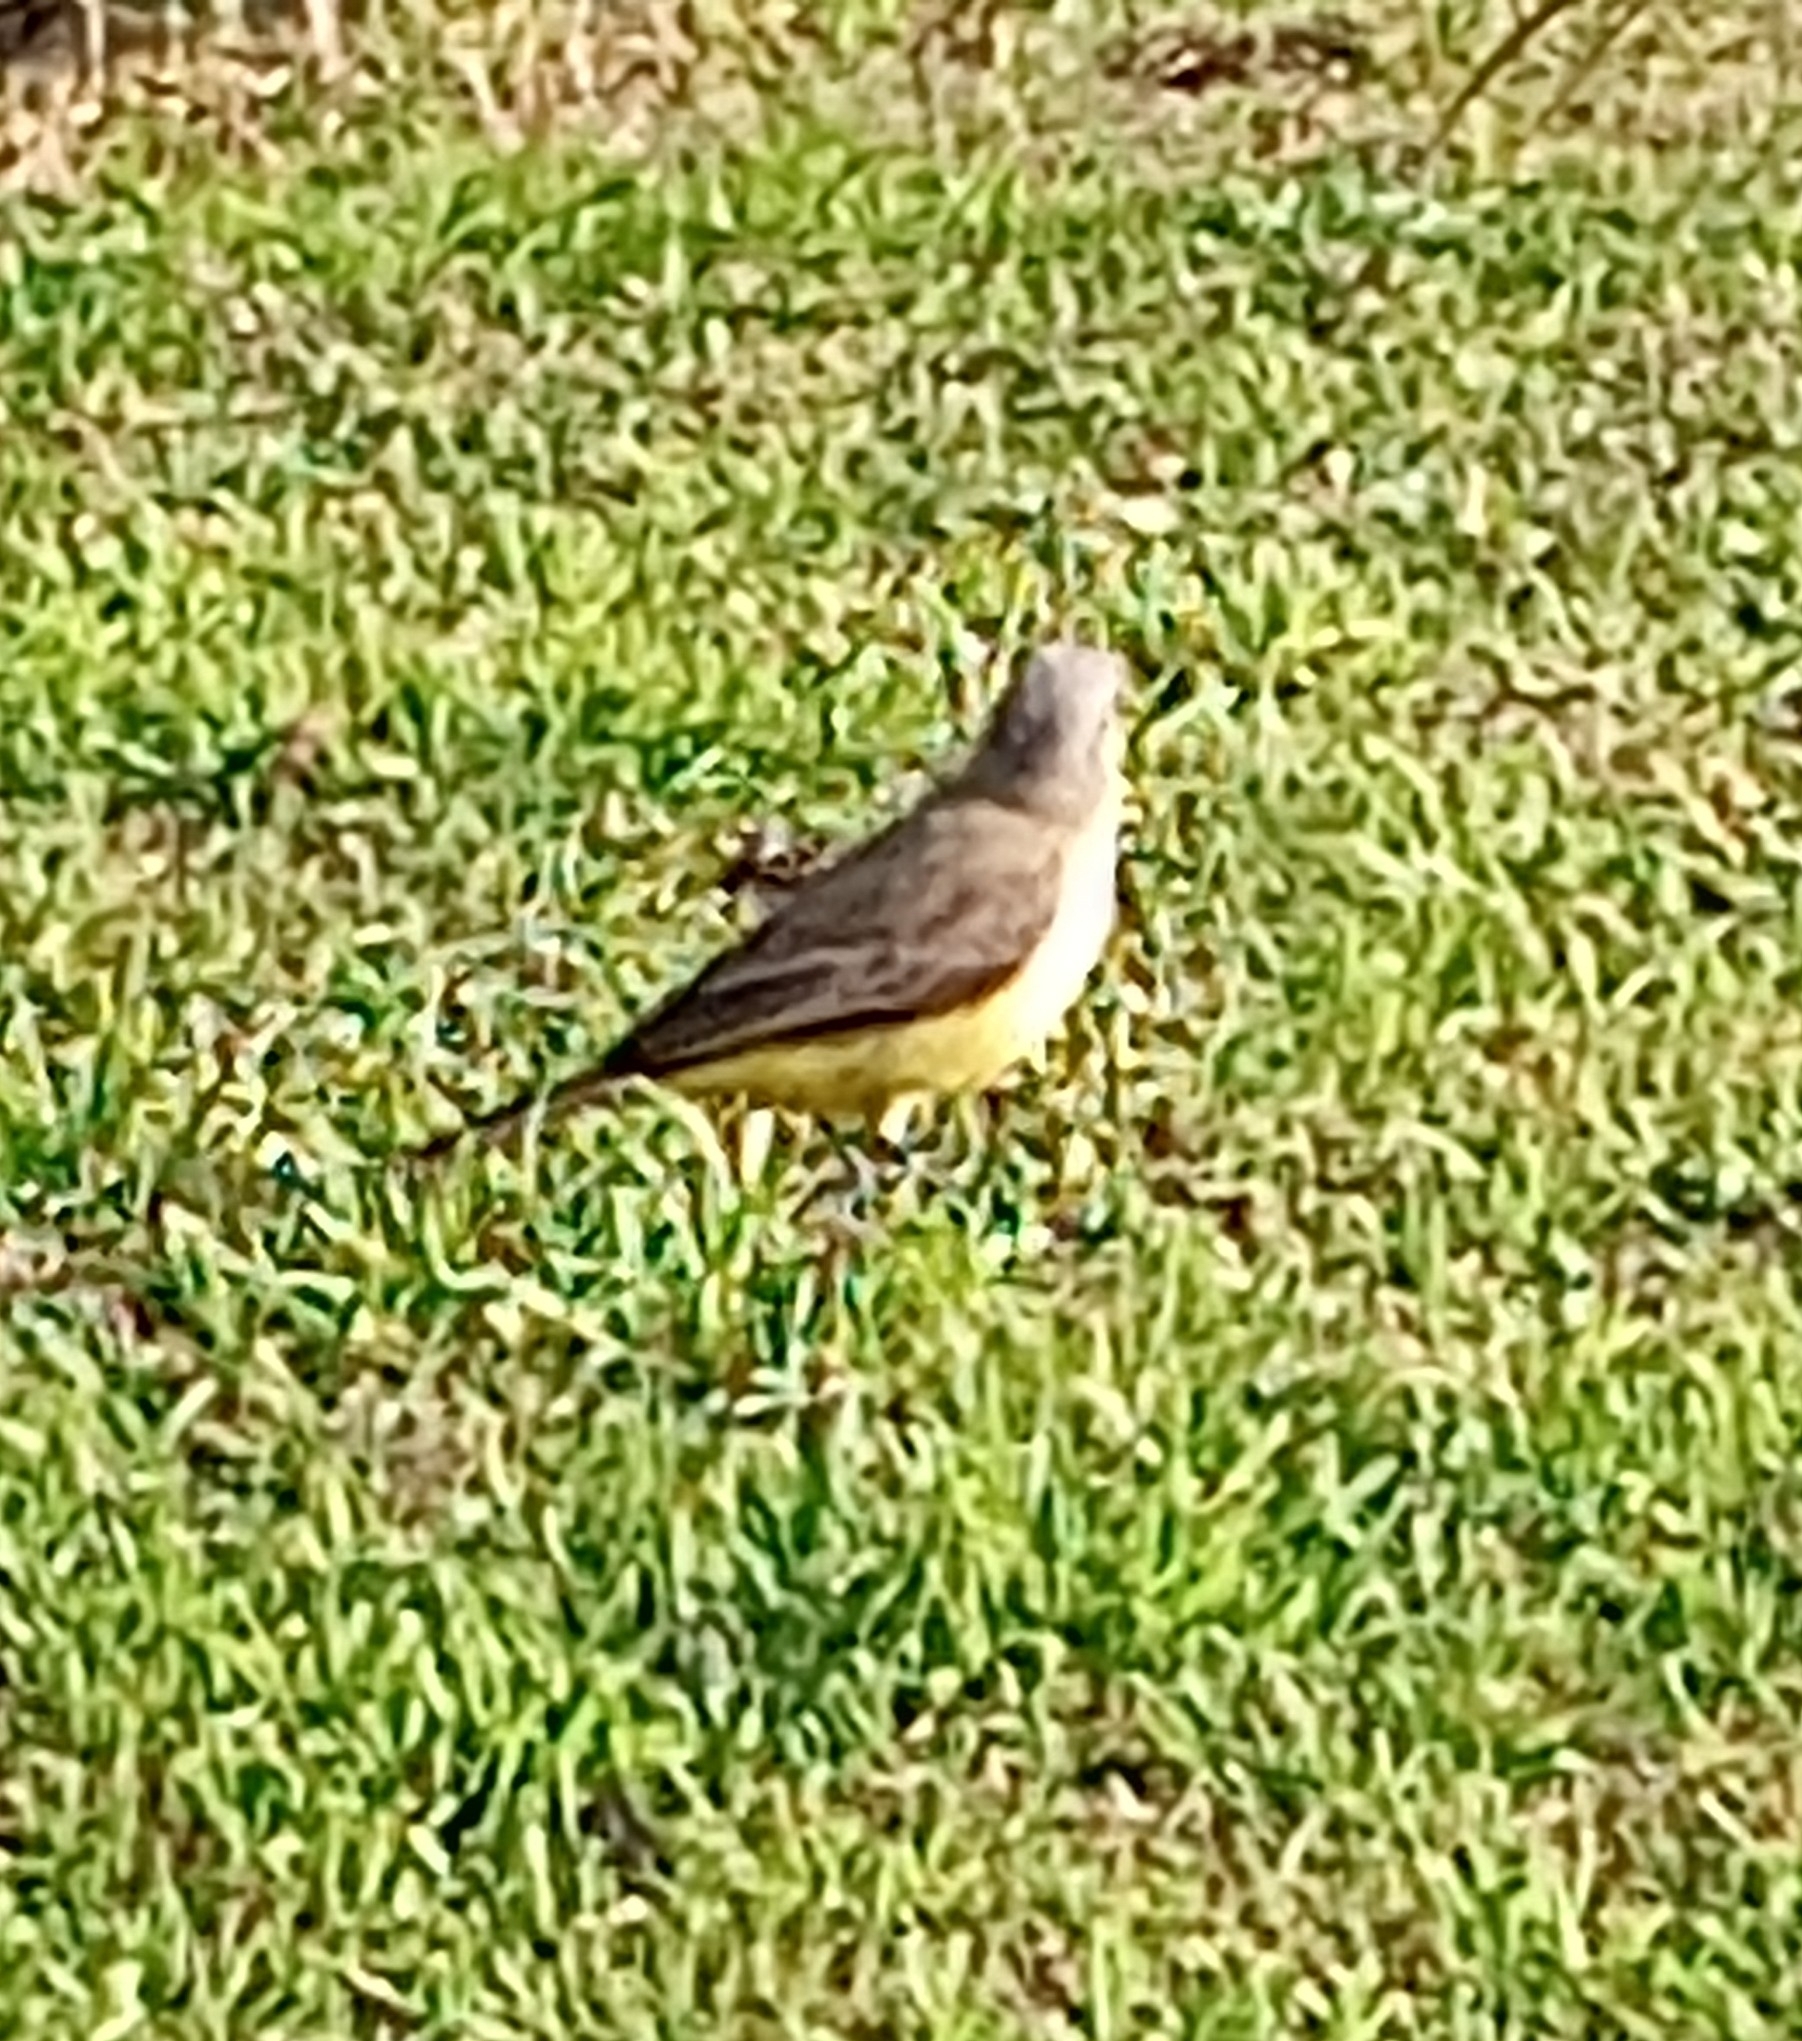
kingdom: Animalia
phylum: Chordata
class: Aves
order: Passeriformes
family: Tyrannidae
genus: Machetornis
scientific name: Machetornis rixosa
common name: Cattle tyrant
